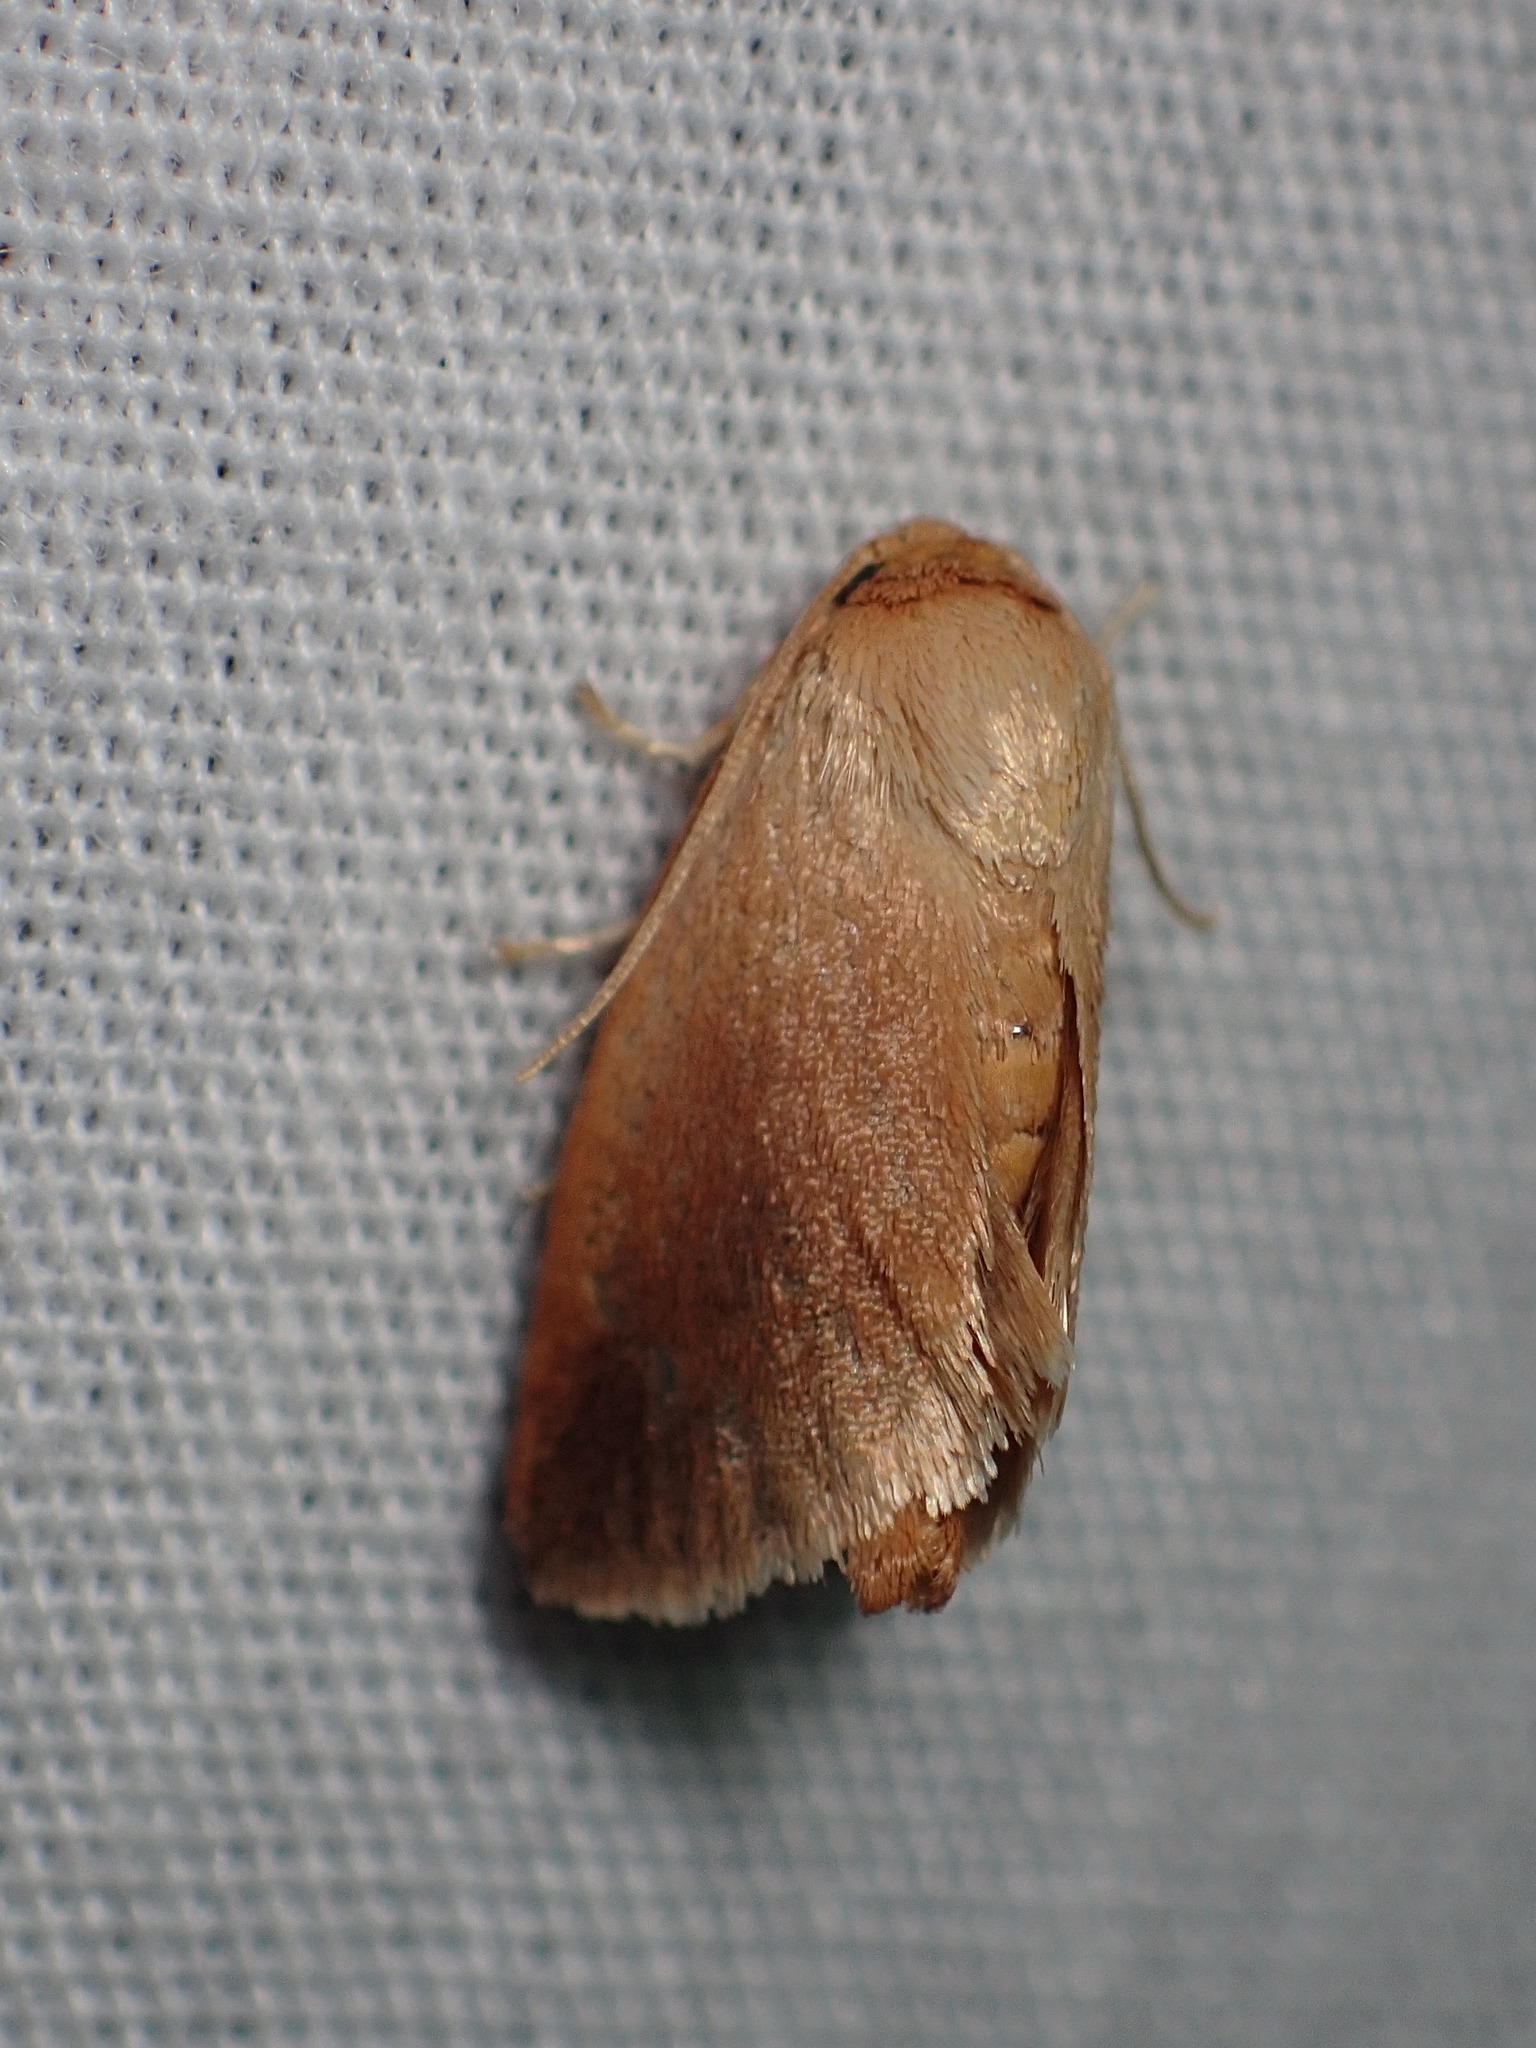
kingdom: Animalia
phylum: Arthropoda
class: Insecta
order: Lepidoptera
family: Limacodidae
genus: Tortricidia
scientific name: Tortricidia testacea
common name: Early button slug moth
